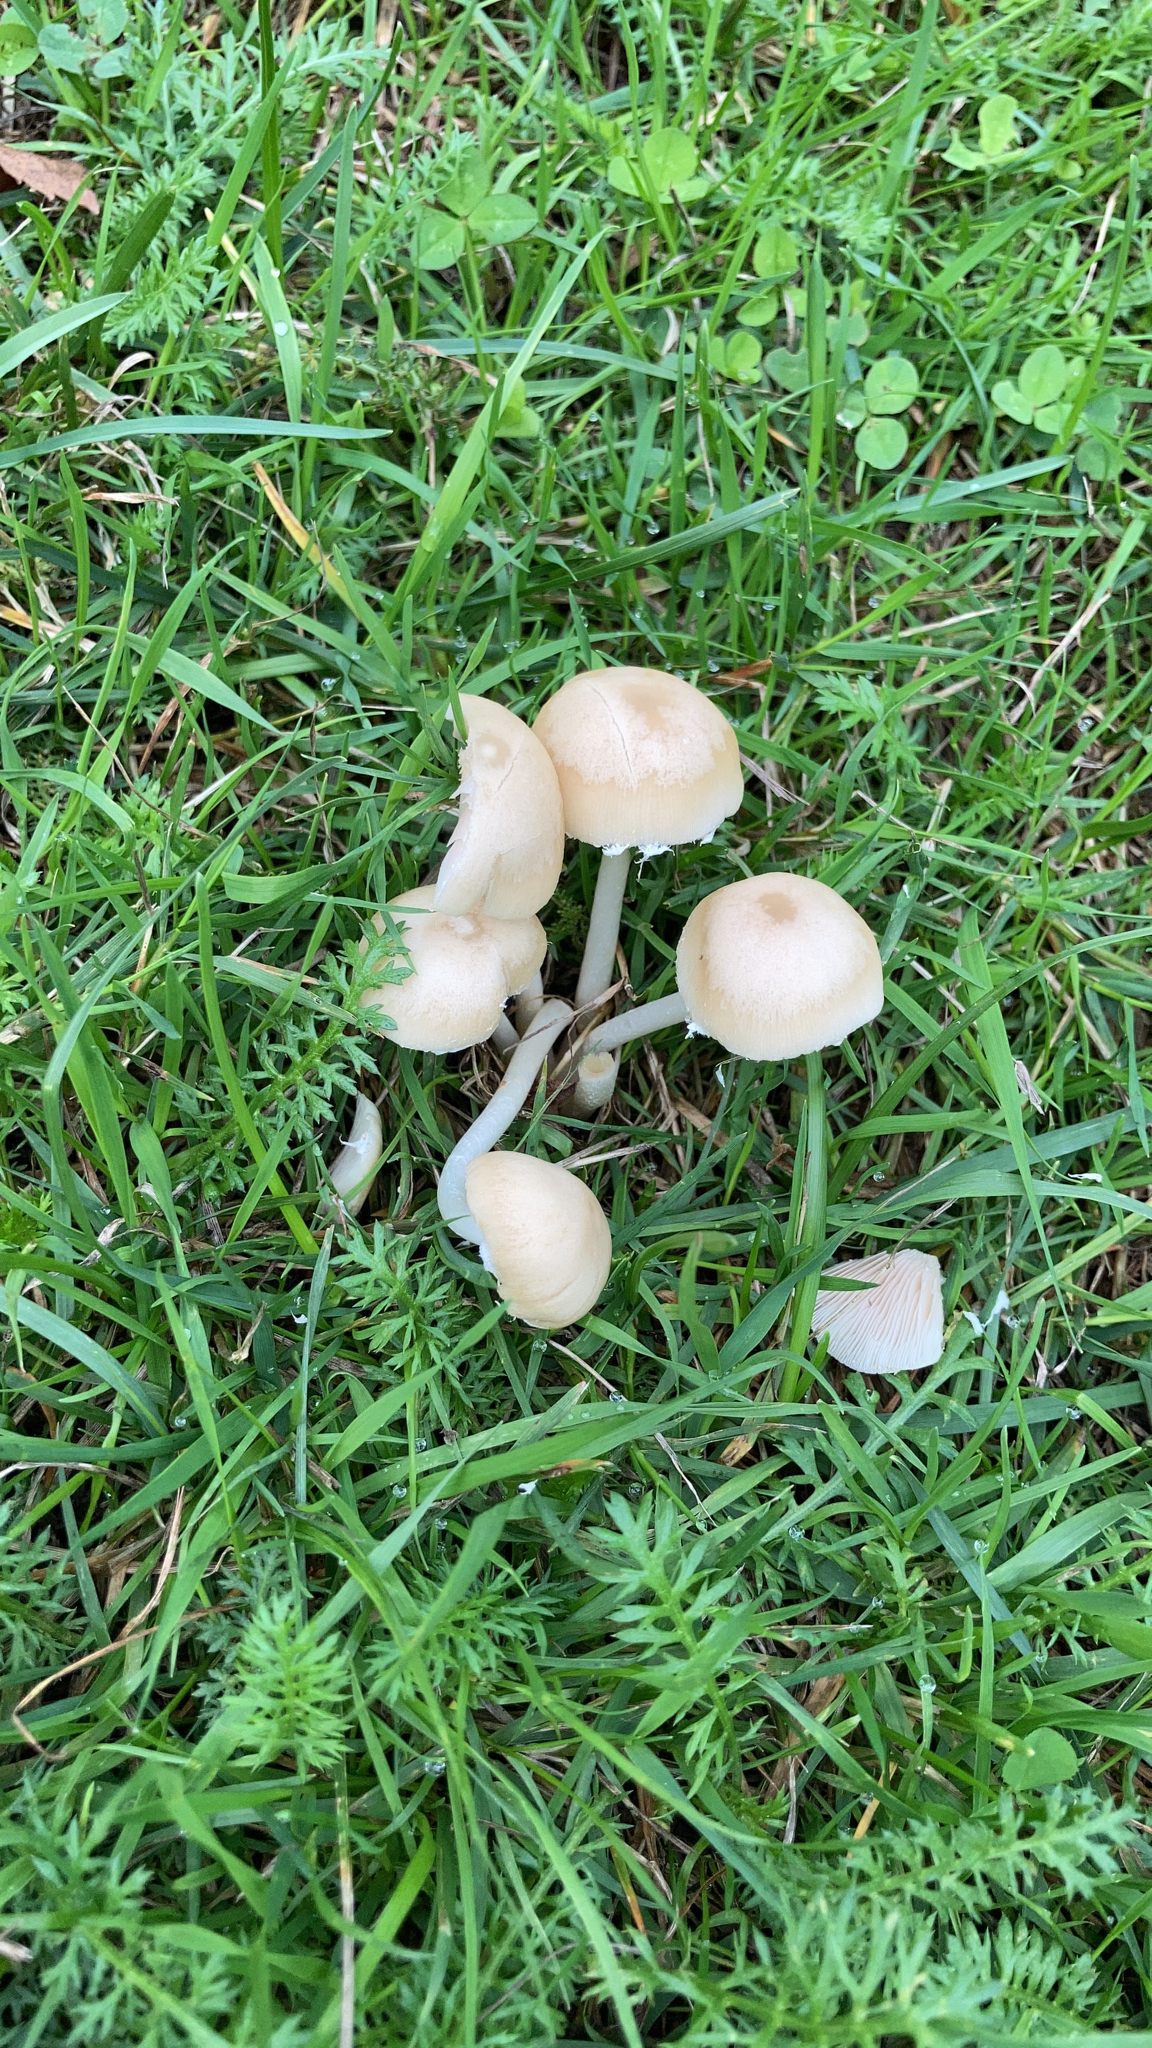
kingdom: Fungi
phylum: Basidiomycota
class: Agaricomycetes
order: Agaricales
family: Psathyrellaceae
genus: Candolleomyces
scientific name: Candolleomyces candolleanus
